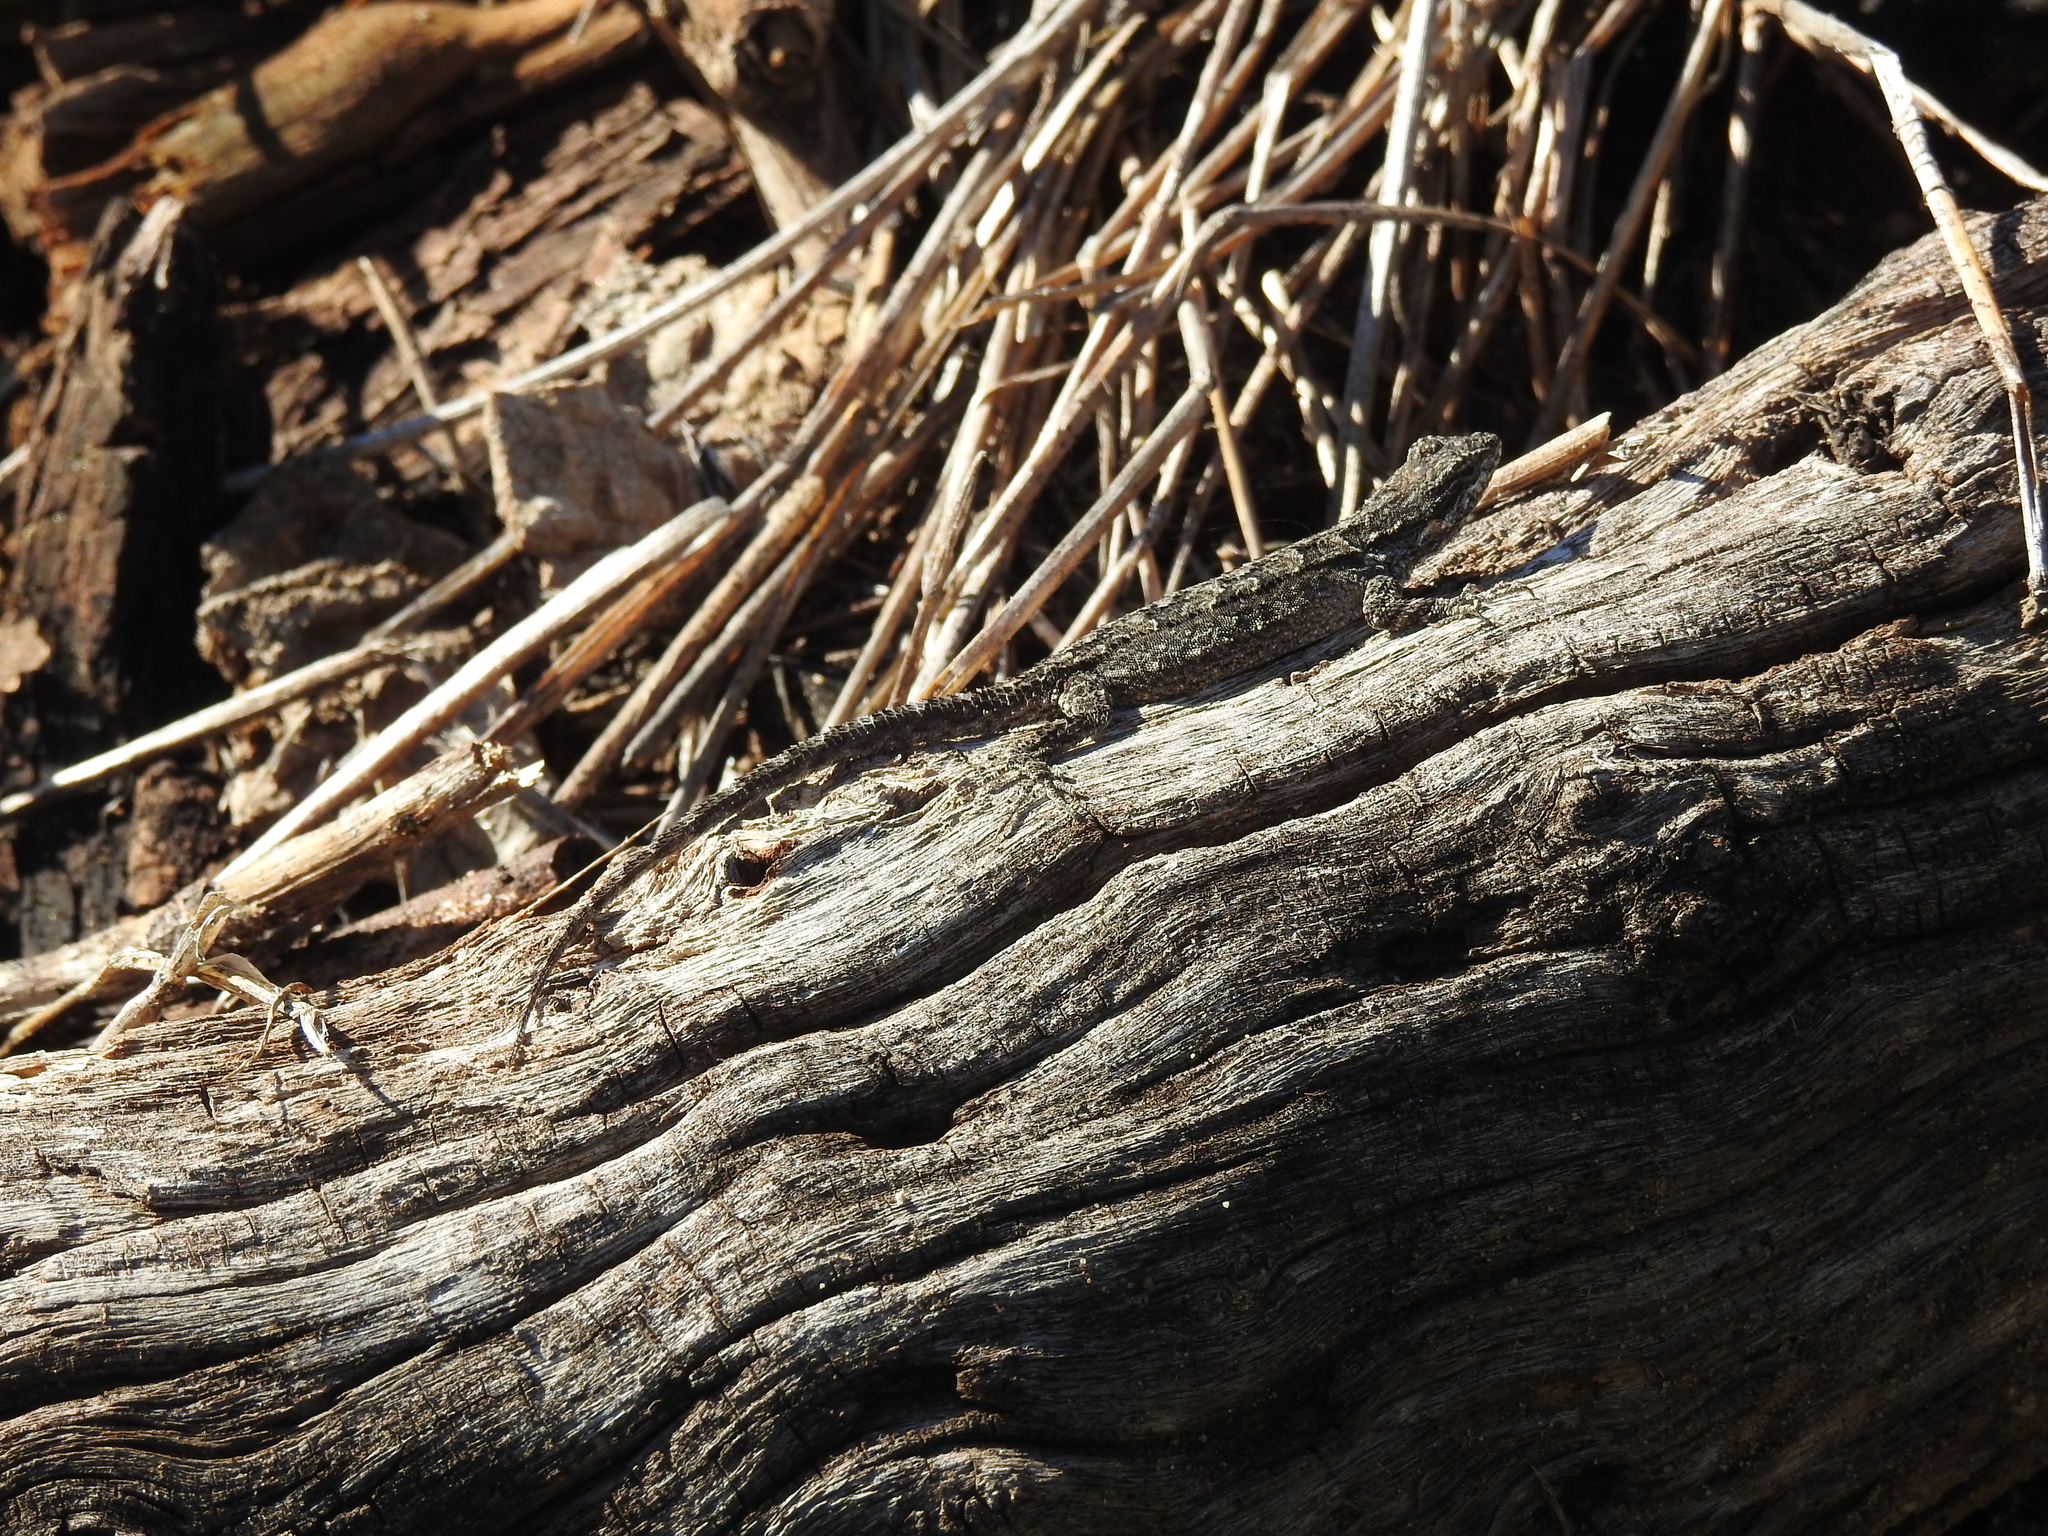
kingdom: Animalia
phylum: Chordata
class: Squamata
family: Phrynosomatidae
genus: Urosaurus
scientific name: Urosaurus ornatus
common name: Ornate tree lizard
